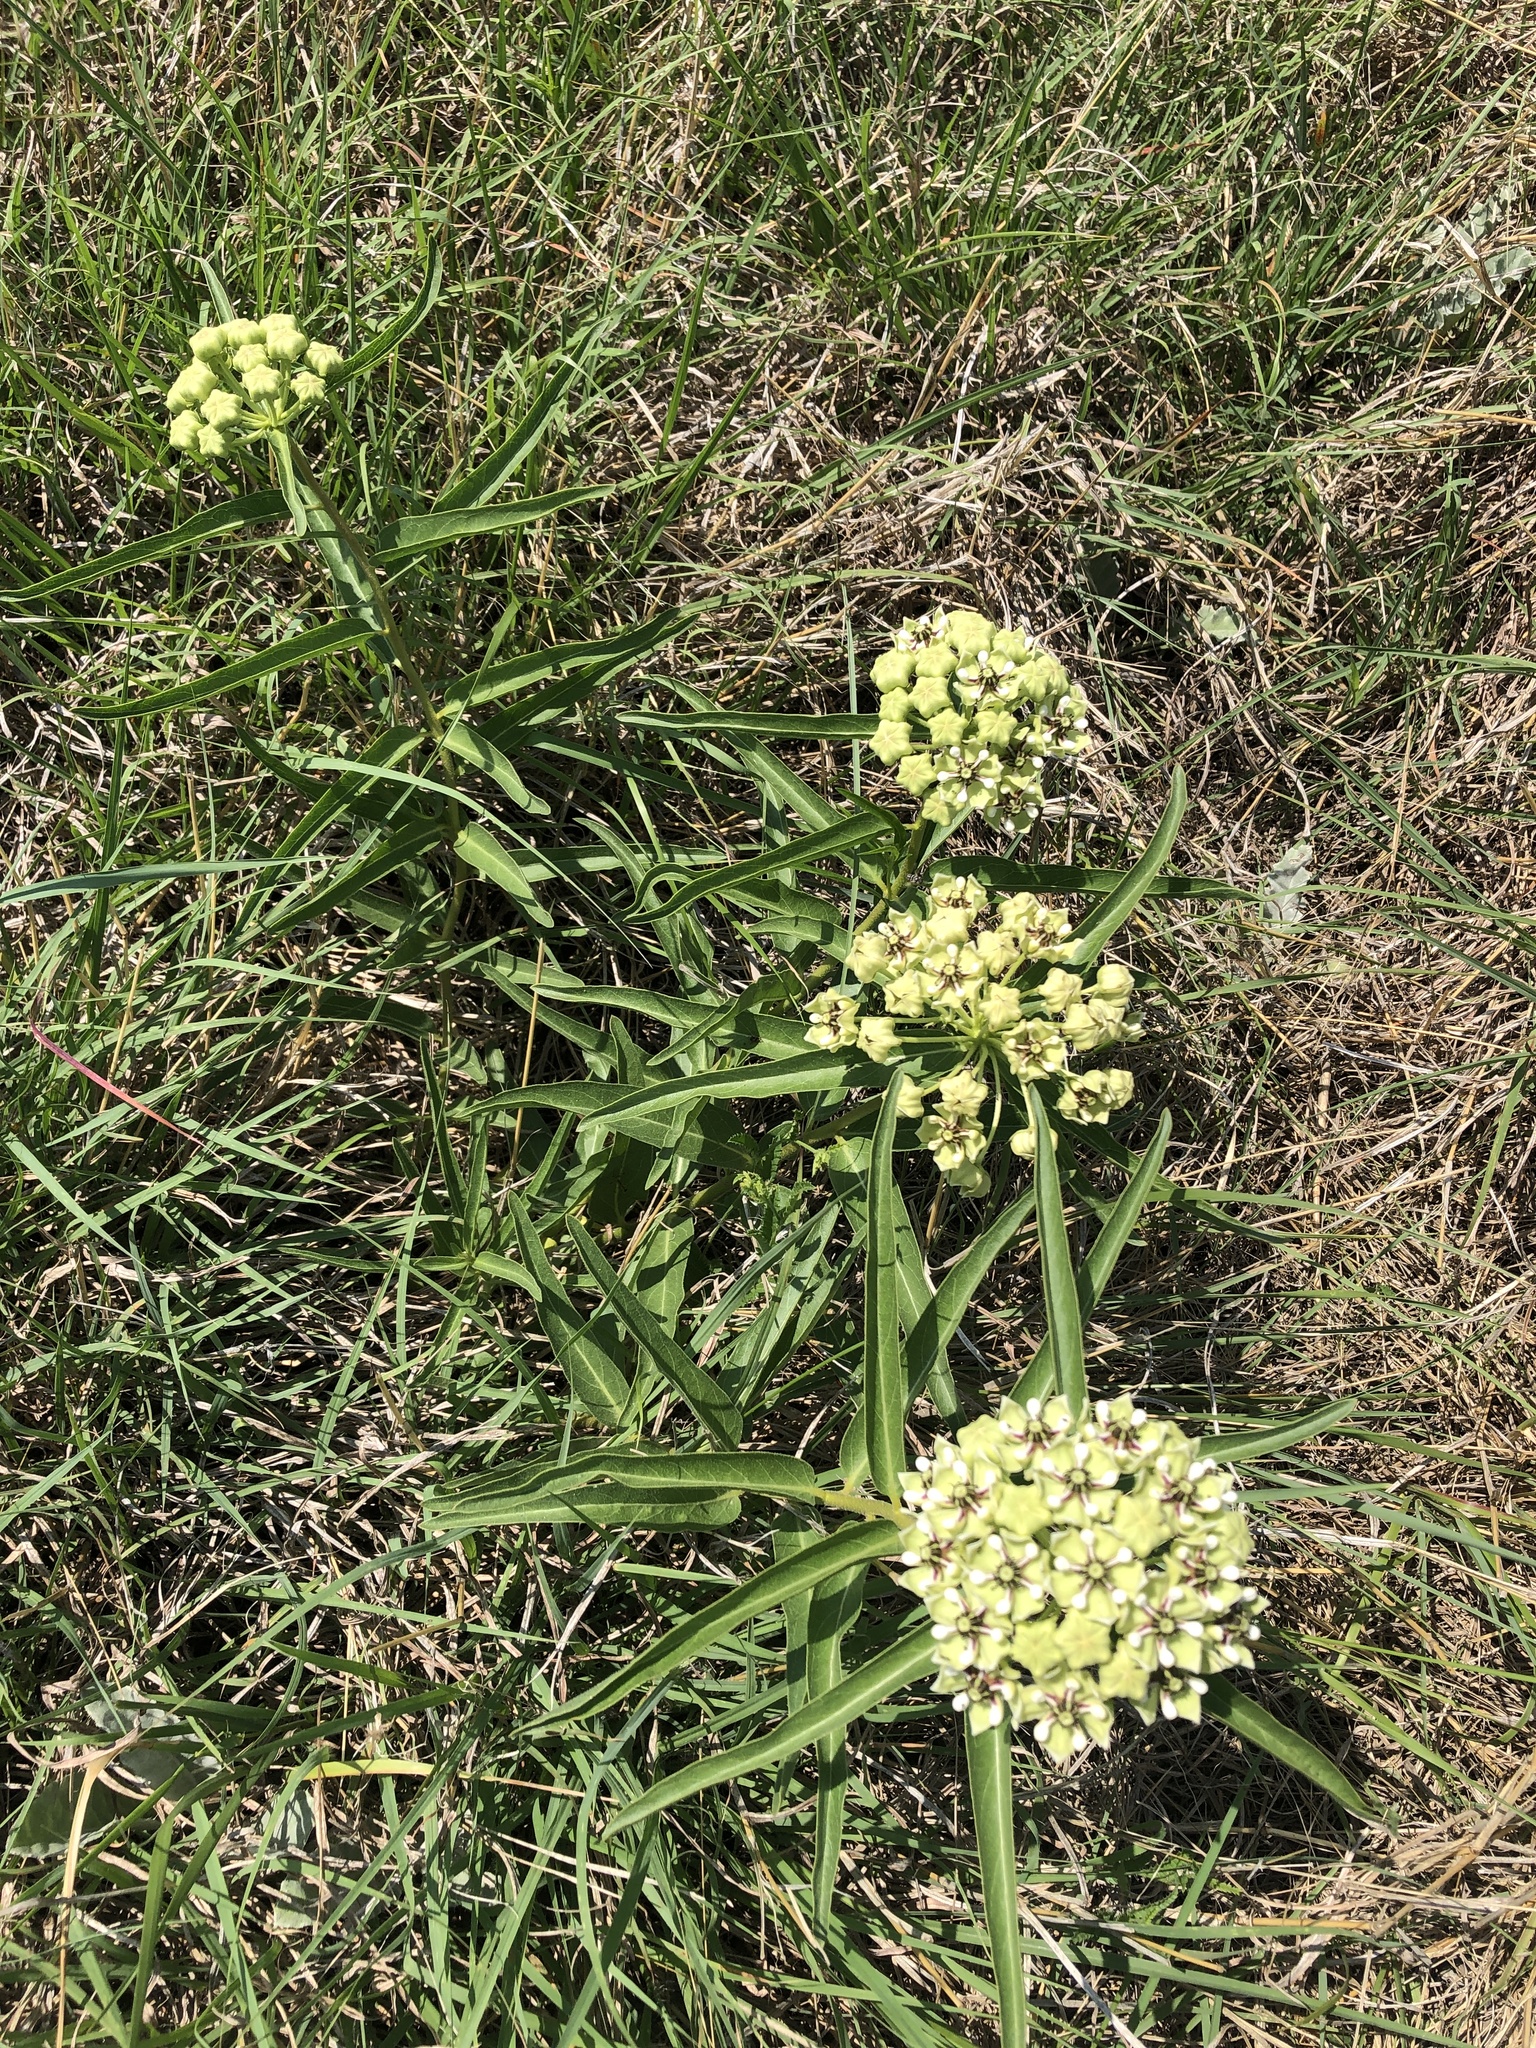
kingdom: Plantae
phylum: Tracheophyta
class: Magnoliopsida
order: Gentianales
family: Apocynaceae
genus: Asclepias
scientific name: Asclepias asperula
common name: Antelope horns
